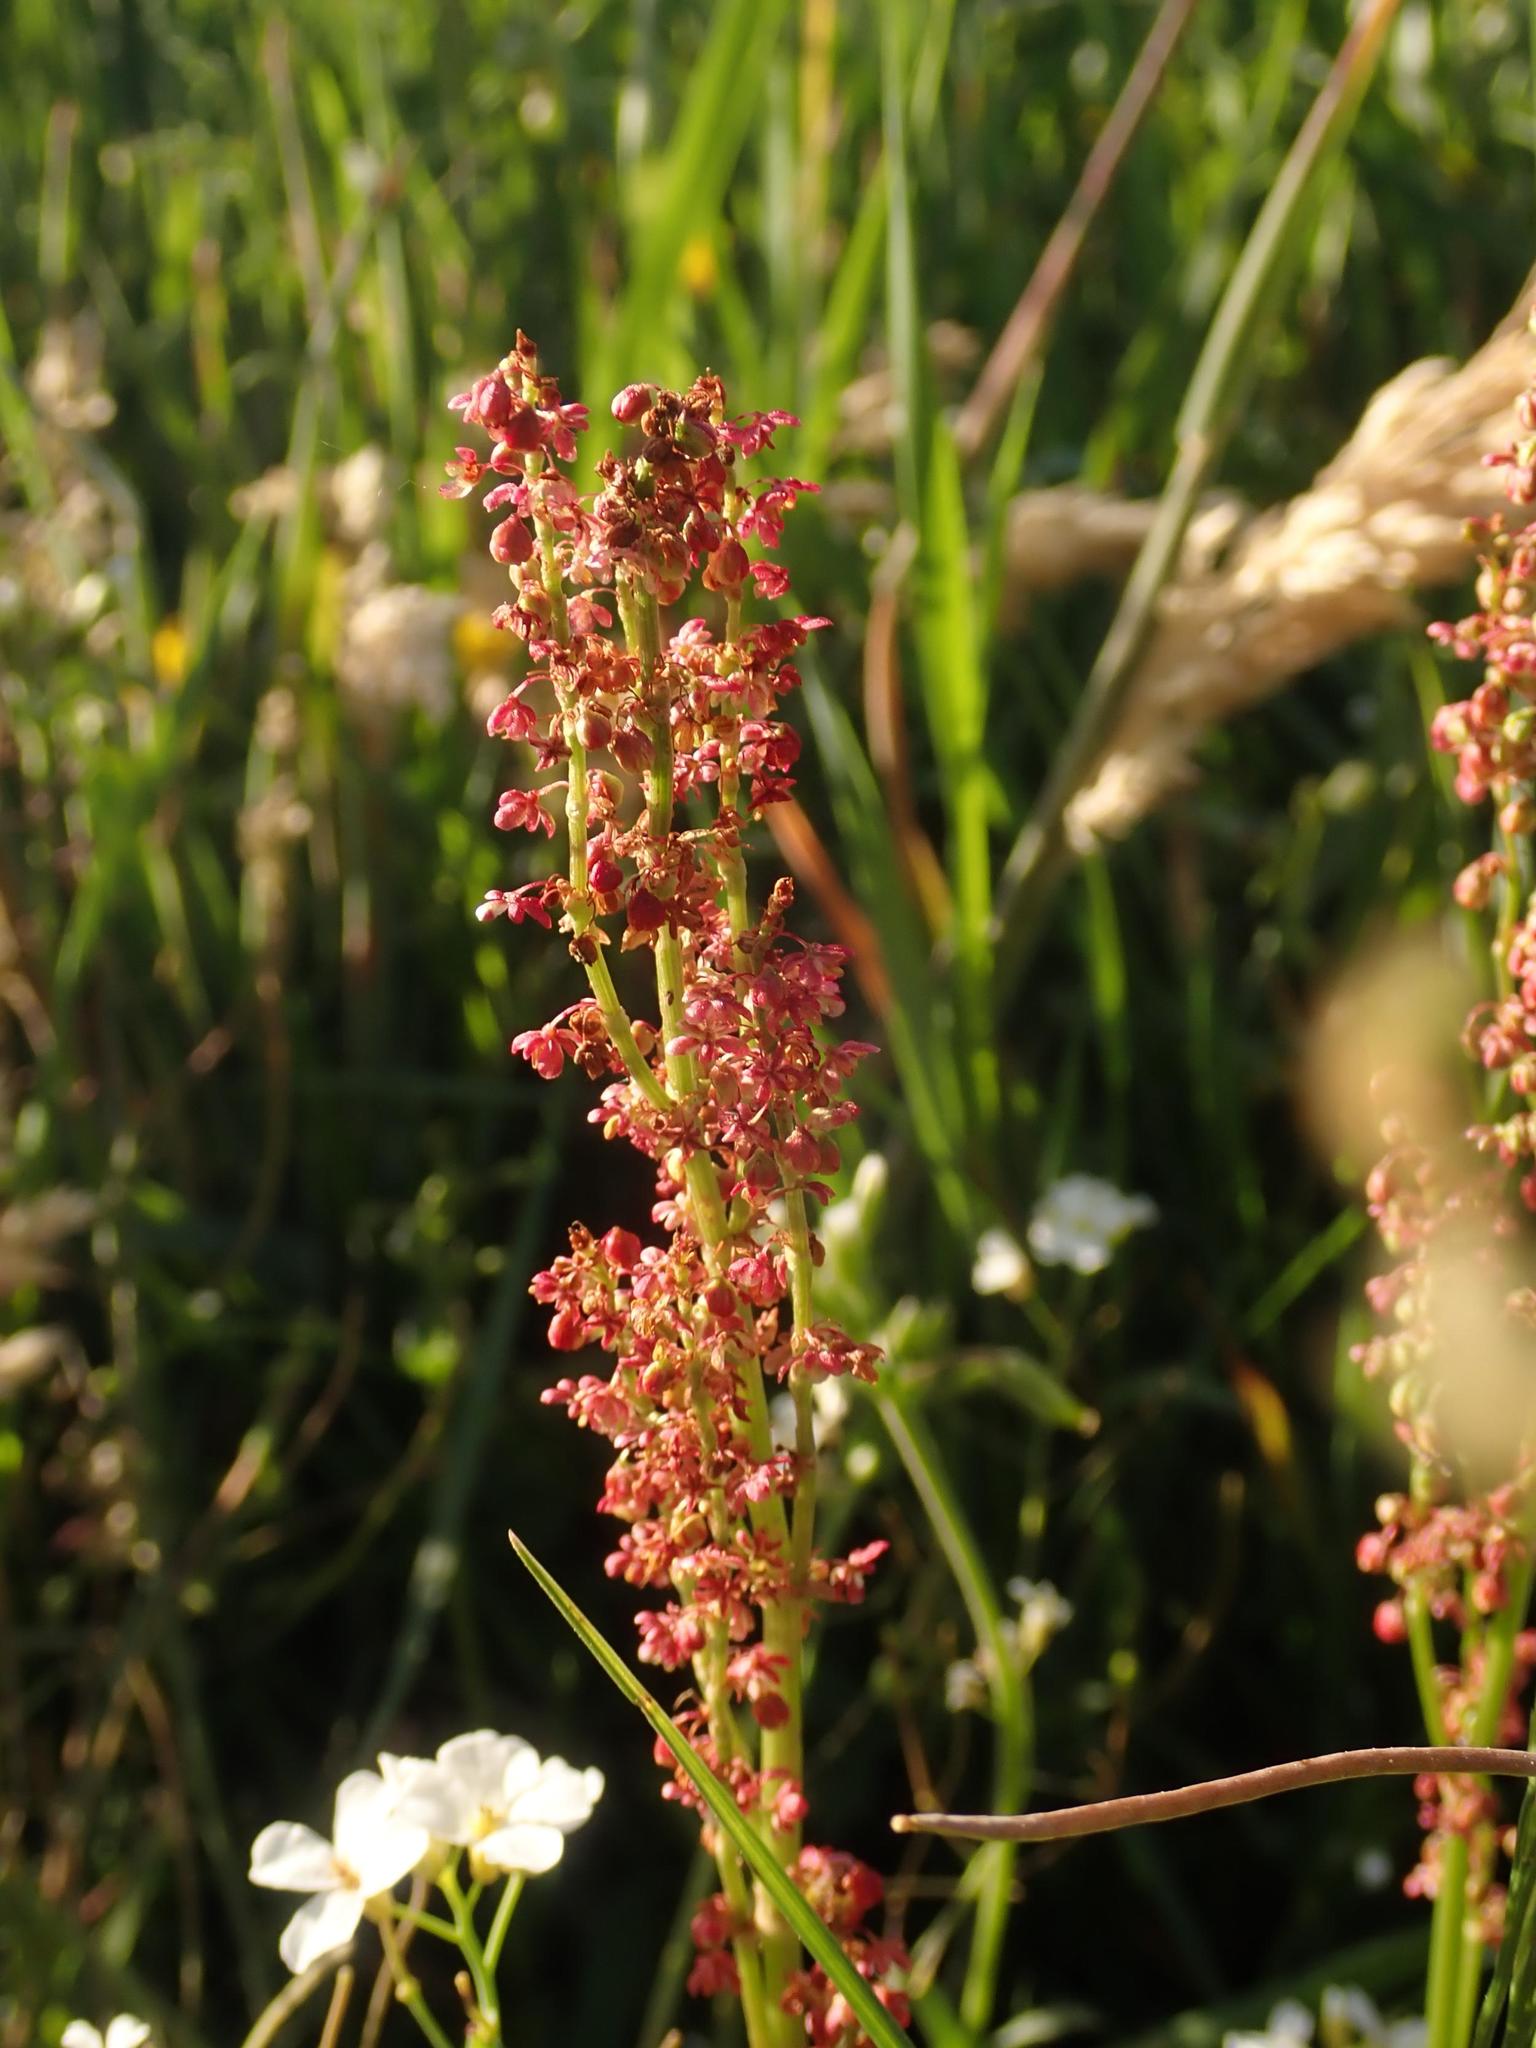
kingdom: Plantae
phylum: Tracheophyta
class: Magnoliopsida
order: Caryophyllales
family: Polygonaceae
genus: Rumex
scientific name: Rumex acetosa
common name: Garden sorrel
